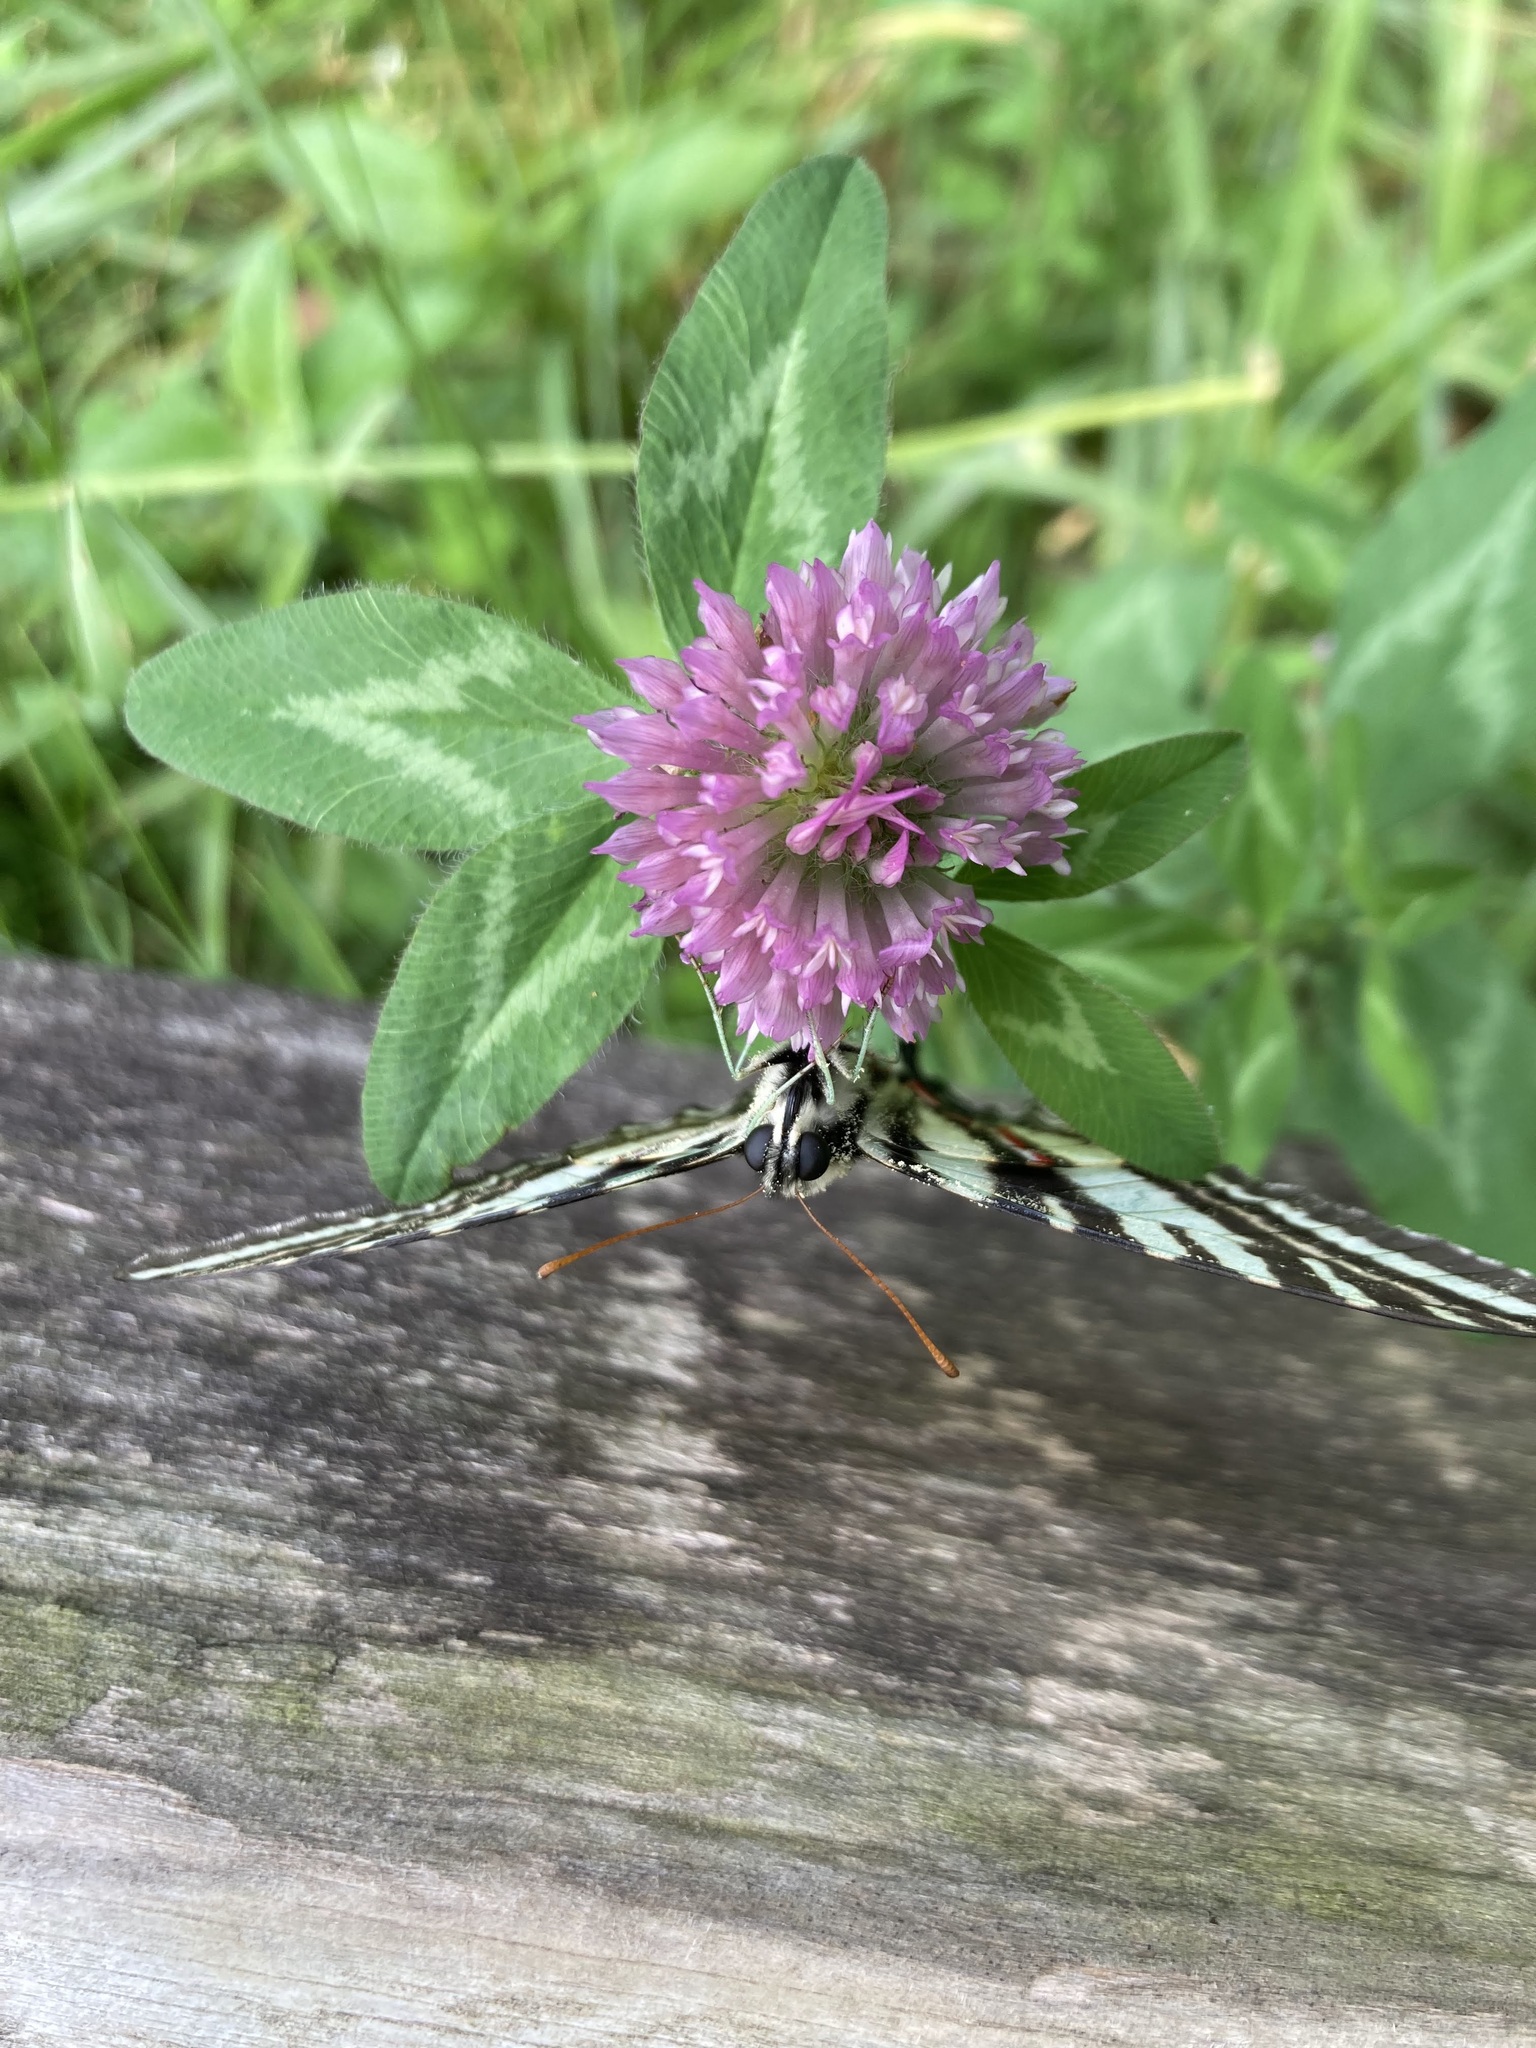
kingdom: Animalia
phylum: Arthropoda
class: Insecta
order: Lepidoptera
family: Papilionidae
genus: Protographium
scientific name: Protographium marcellus
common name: Zebra swallowtail
